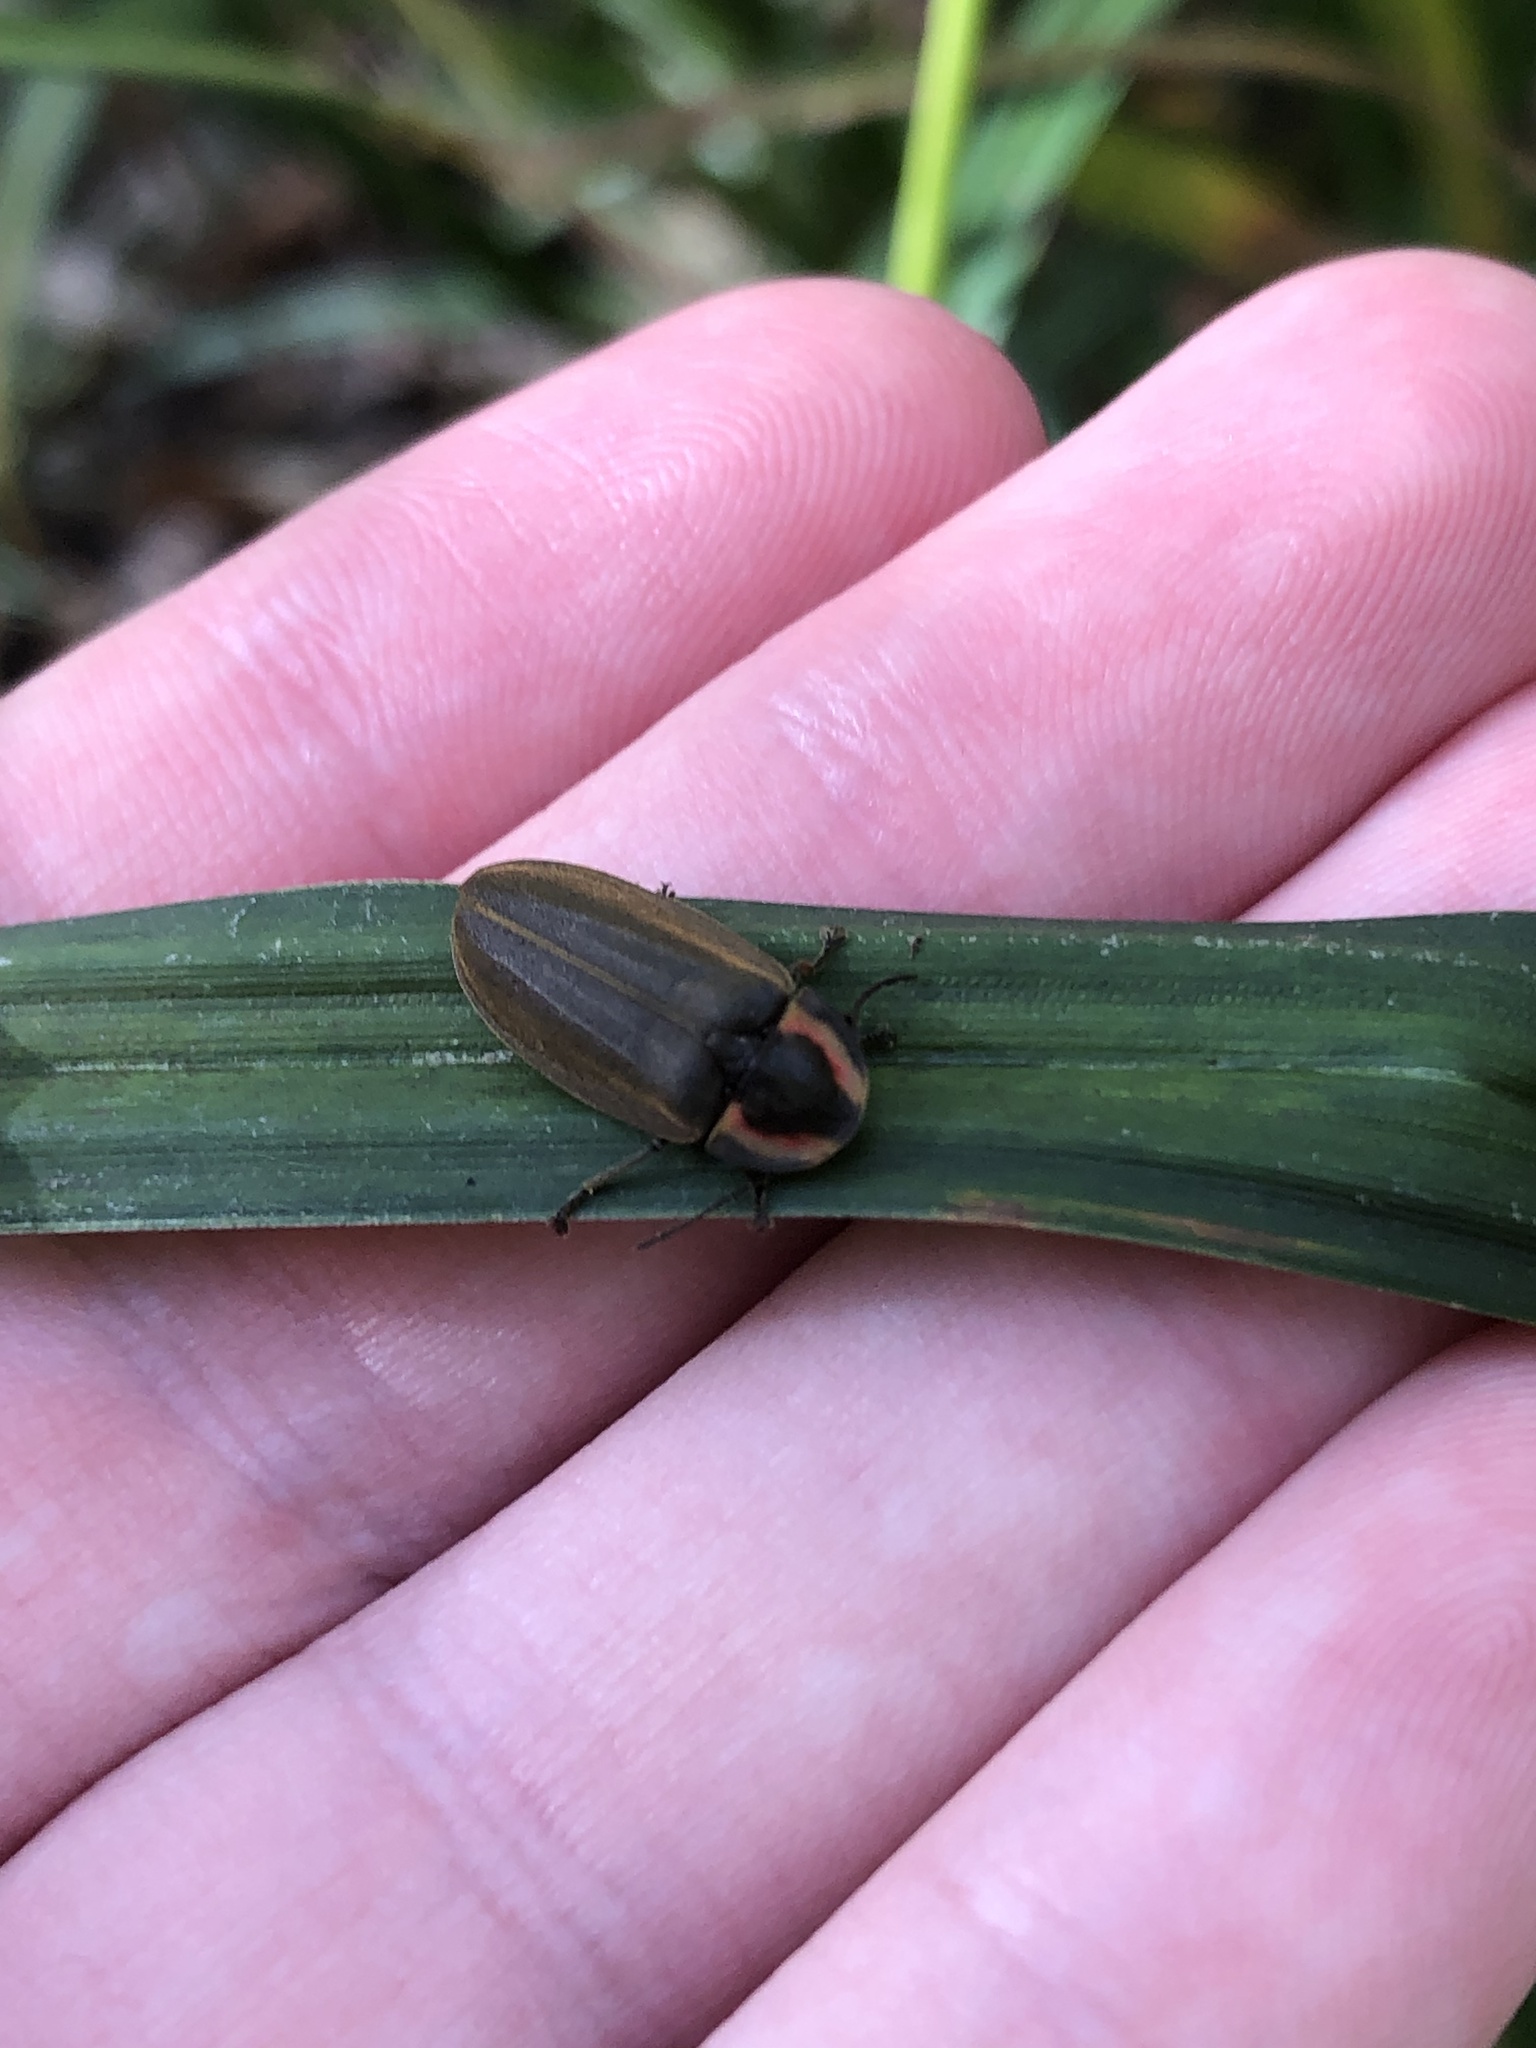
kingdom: Animalia
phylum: Arthropoda
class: Insecta
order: Coleoptera
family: Lampyridae
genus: Photinus
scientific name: Photinus corrusca
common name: Winter firefly
